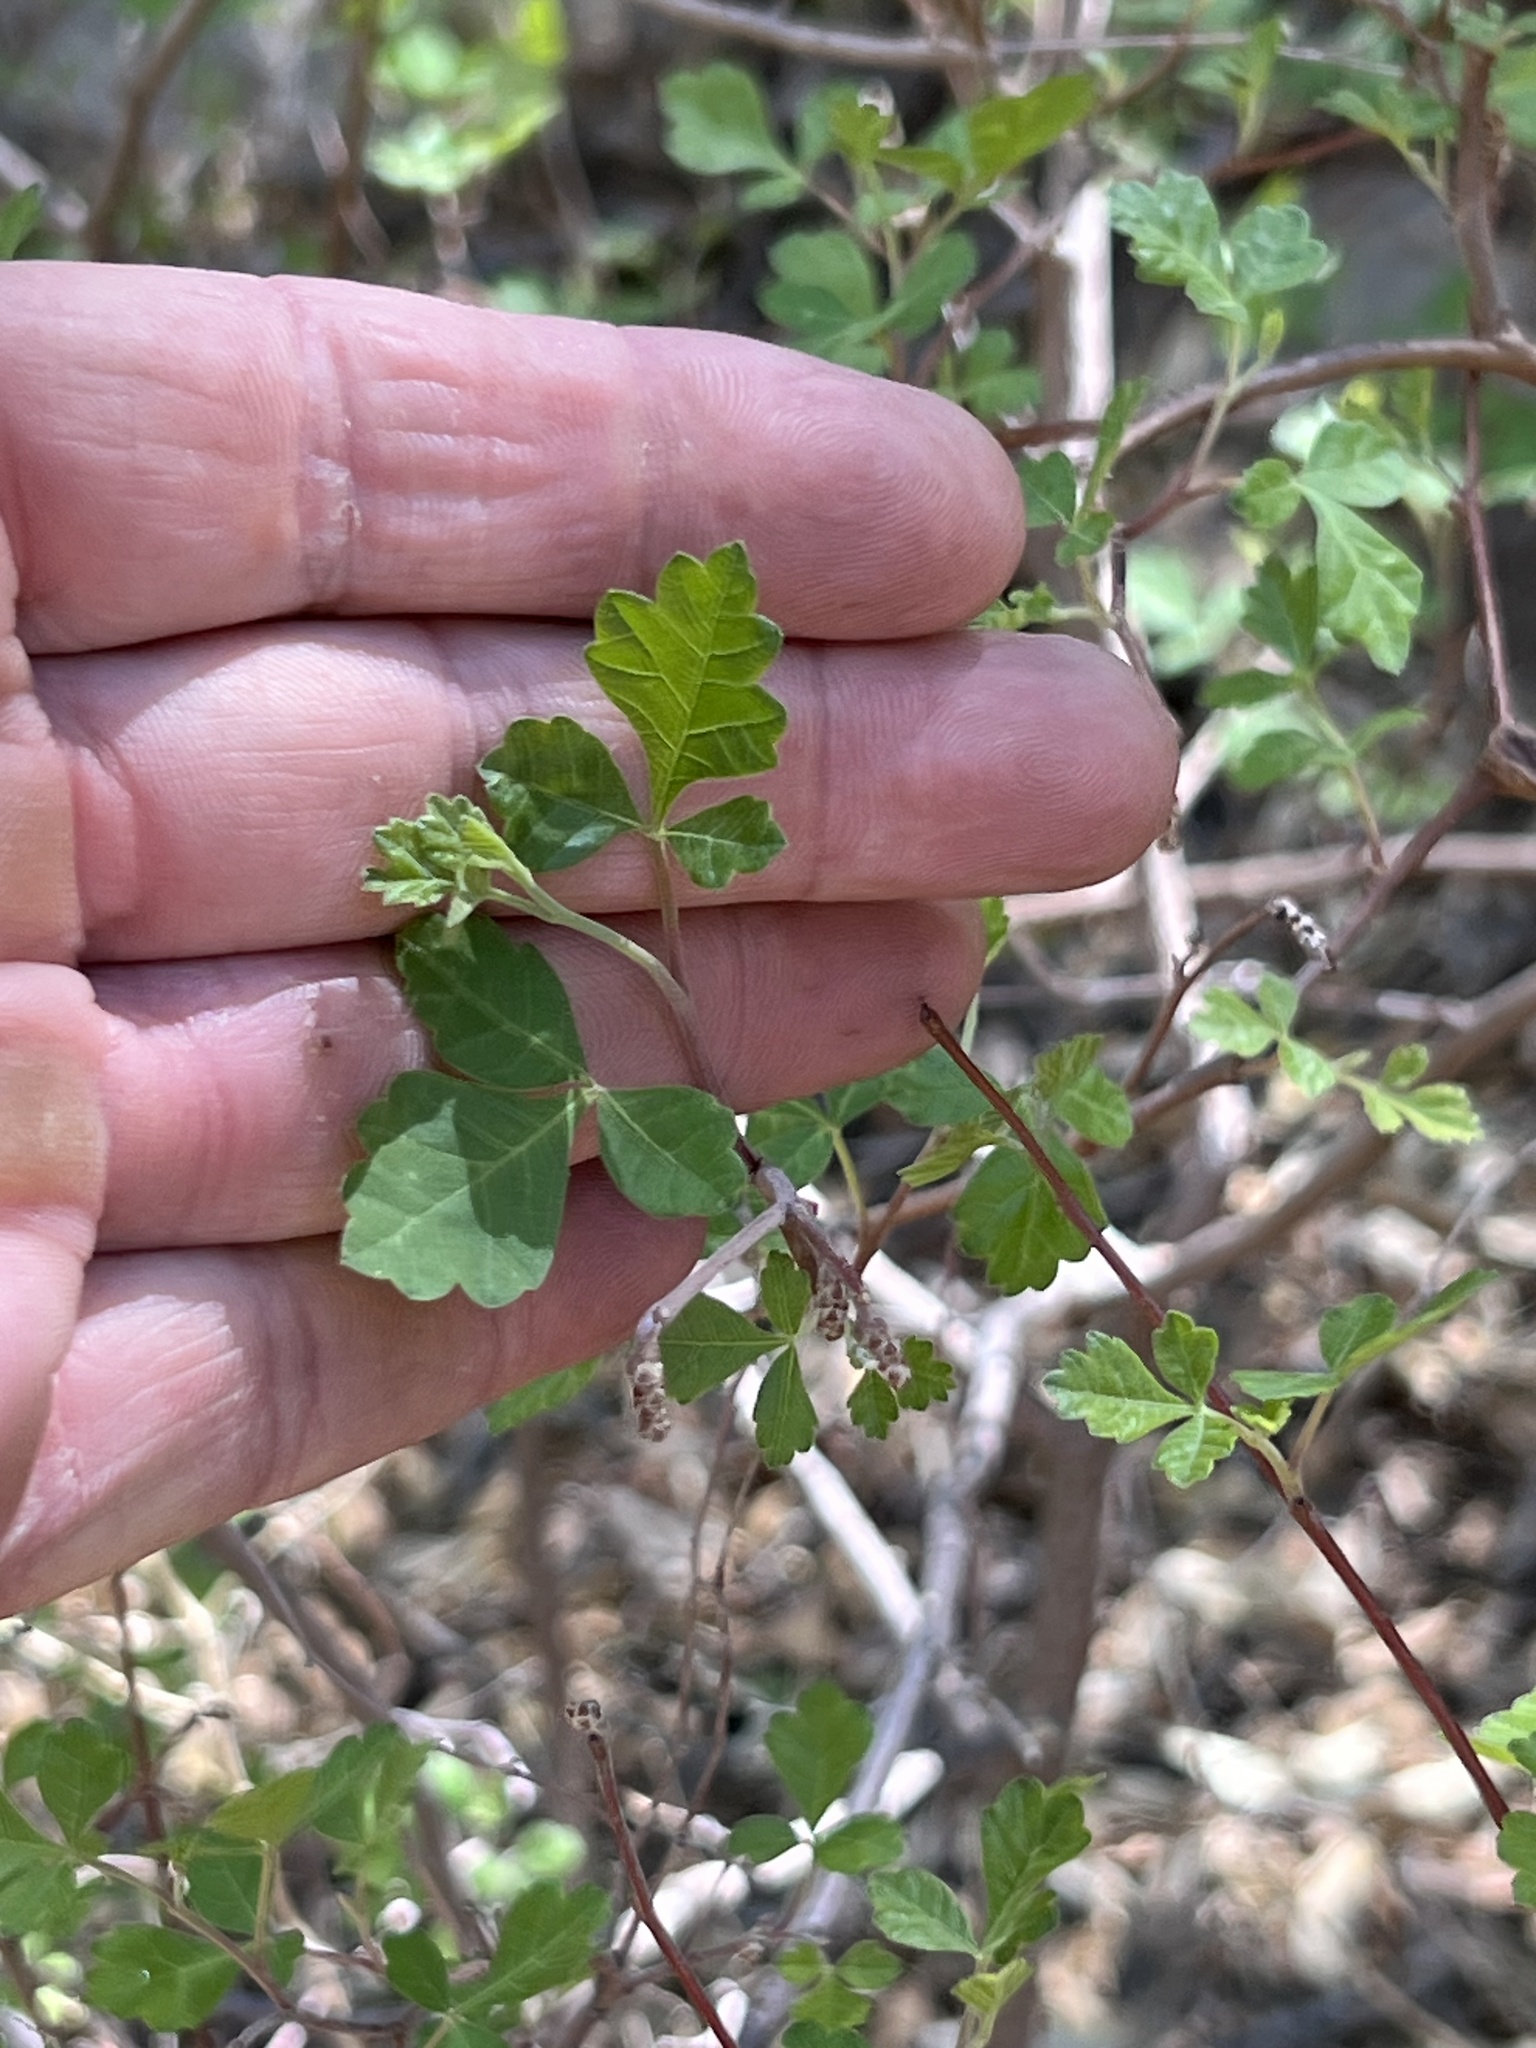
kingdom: Plantae
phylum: Tracheophyta
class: Magnoliopsida
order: Sapindales
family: Anacardiaceae
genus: Rhus
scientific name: Rhus trilobata
